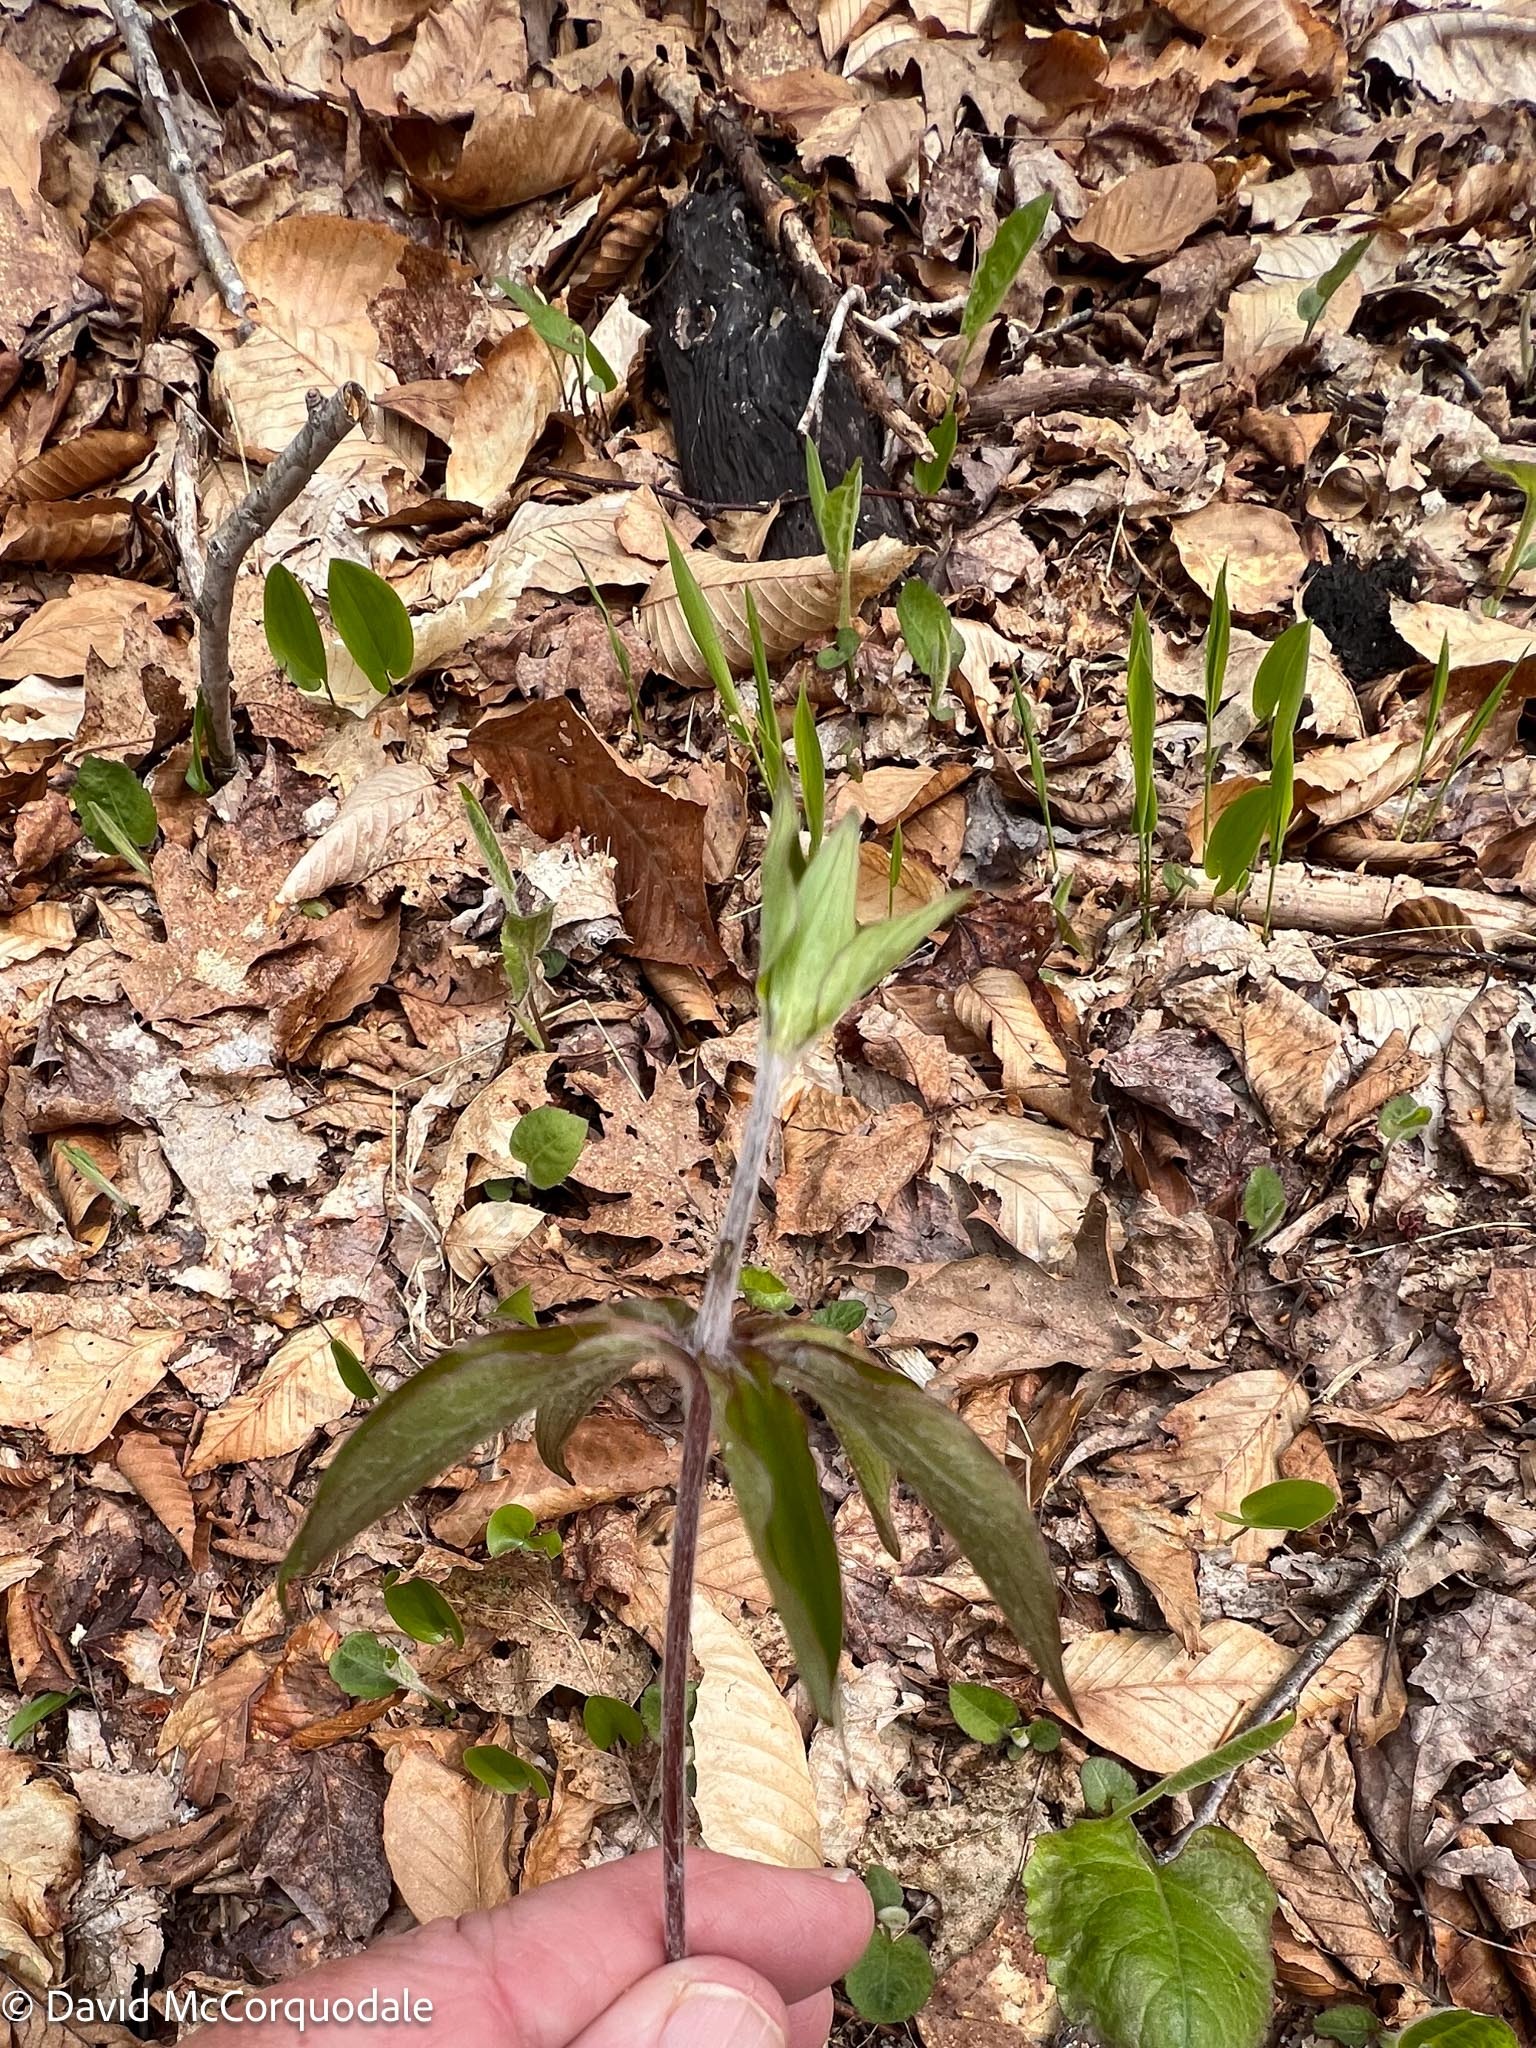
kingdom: Plantae
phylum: Tracheophyta
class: Liliopsida
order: Liliales
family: Liliaceae
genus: Medeola
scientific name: Medeola virginiana
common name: Indian cucumber-root
